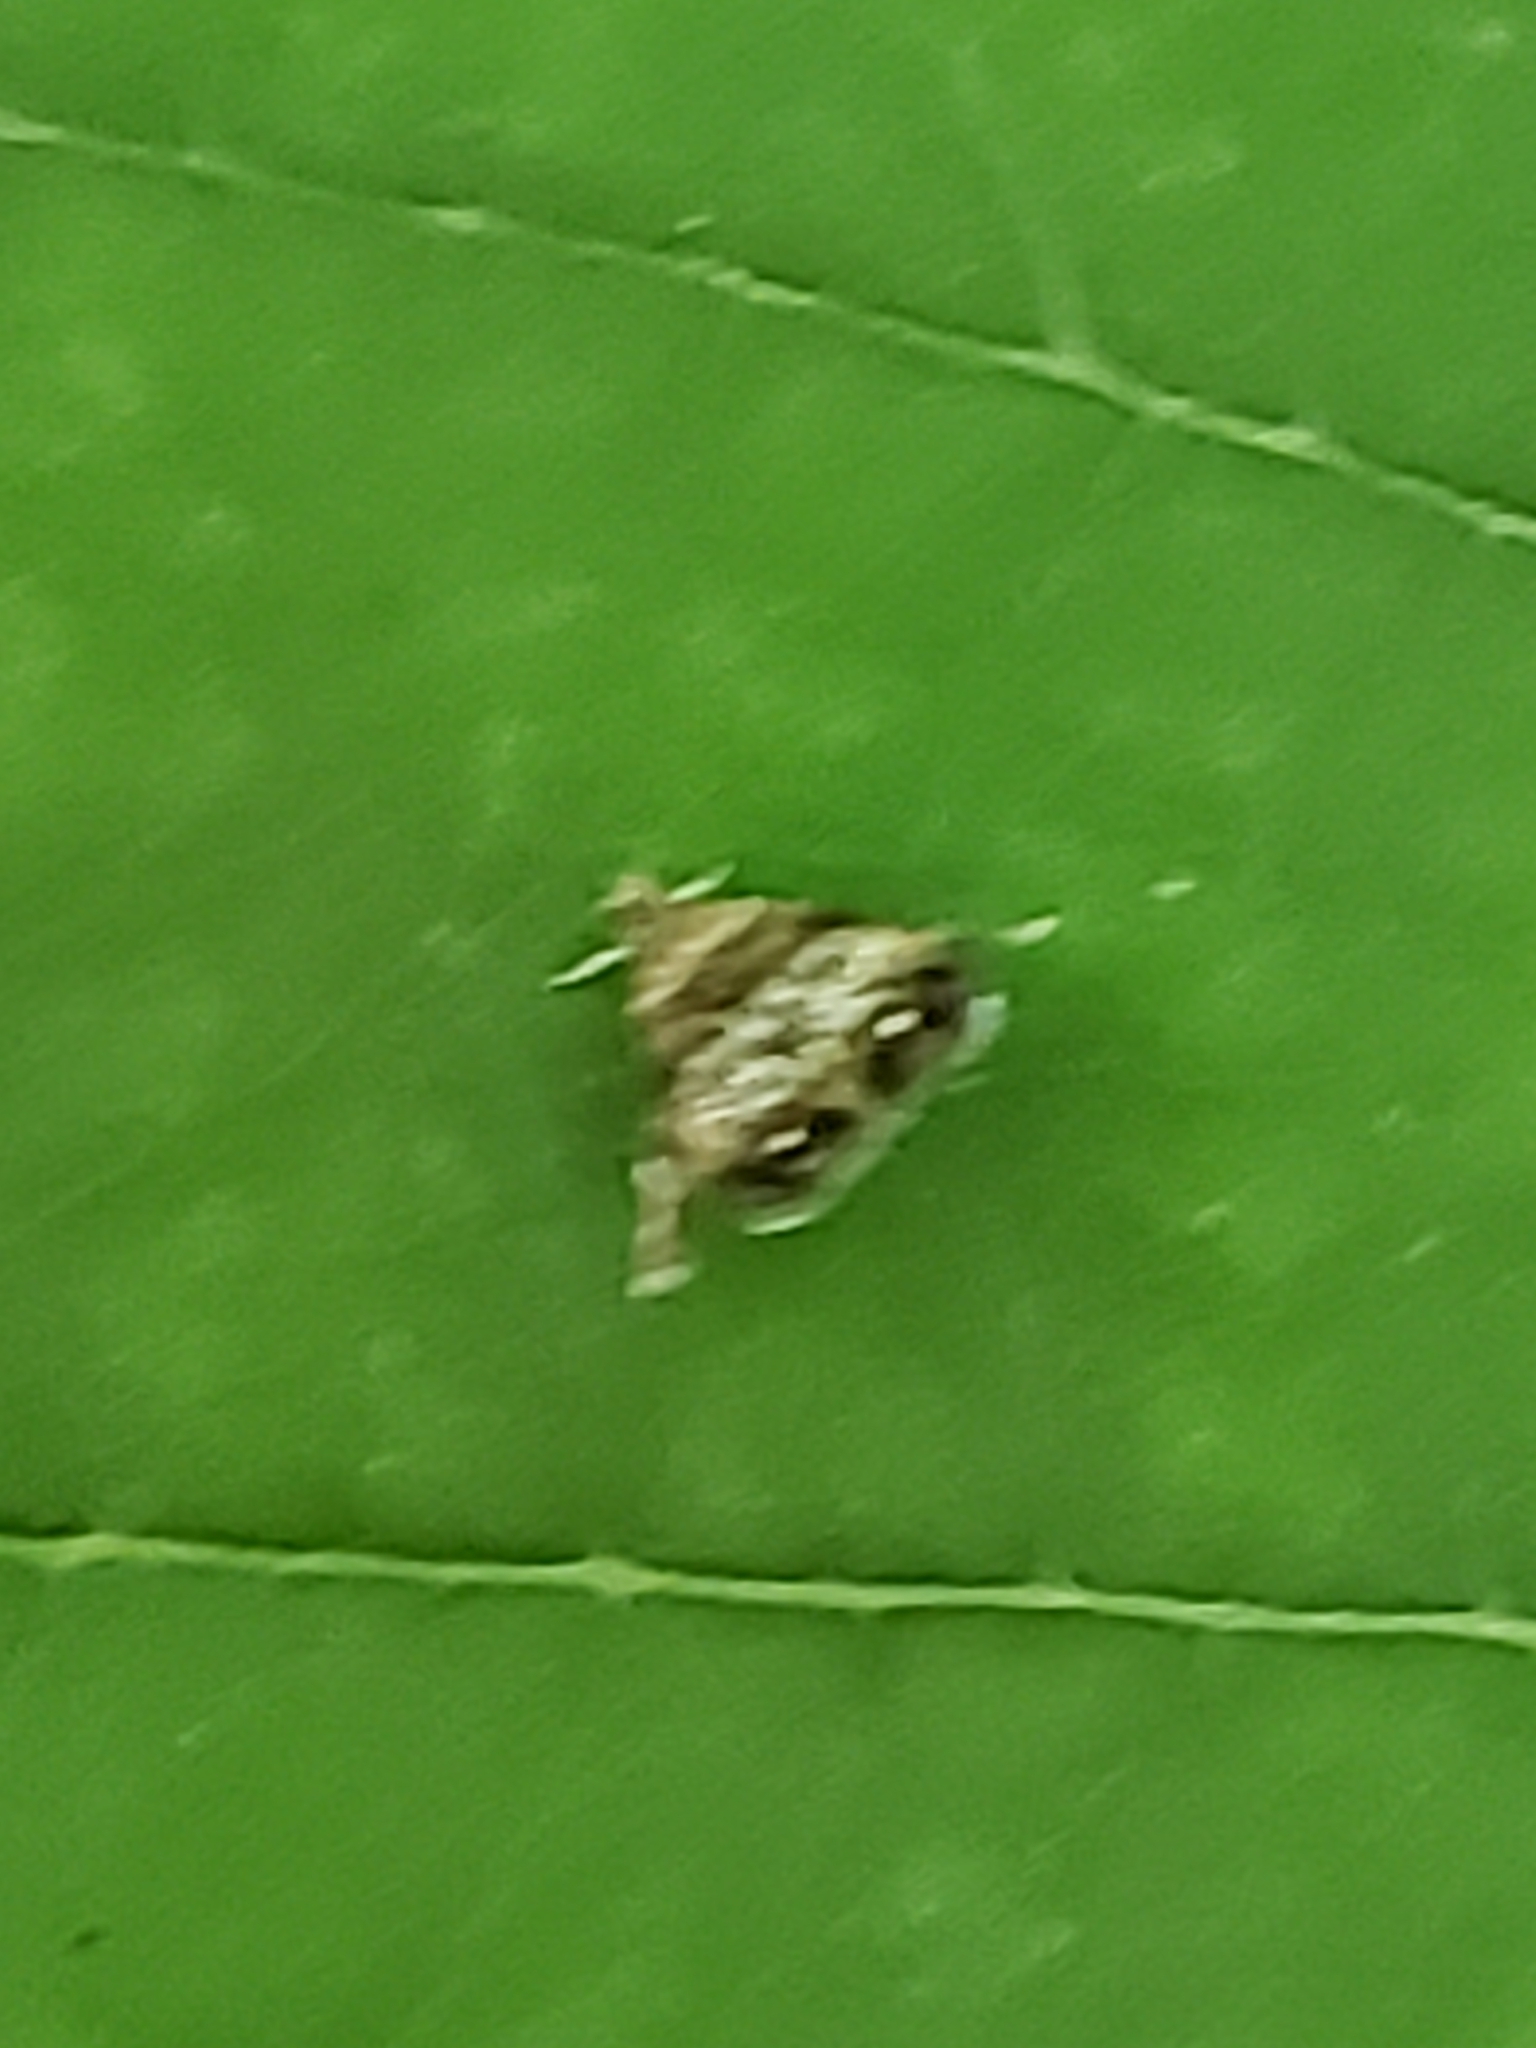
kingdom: Animalia
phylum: Arthropoda
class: Insecta
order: Lepidoptera
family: Choreutidae
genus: Brenthia
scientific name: Brenthia pavonacella
